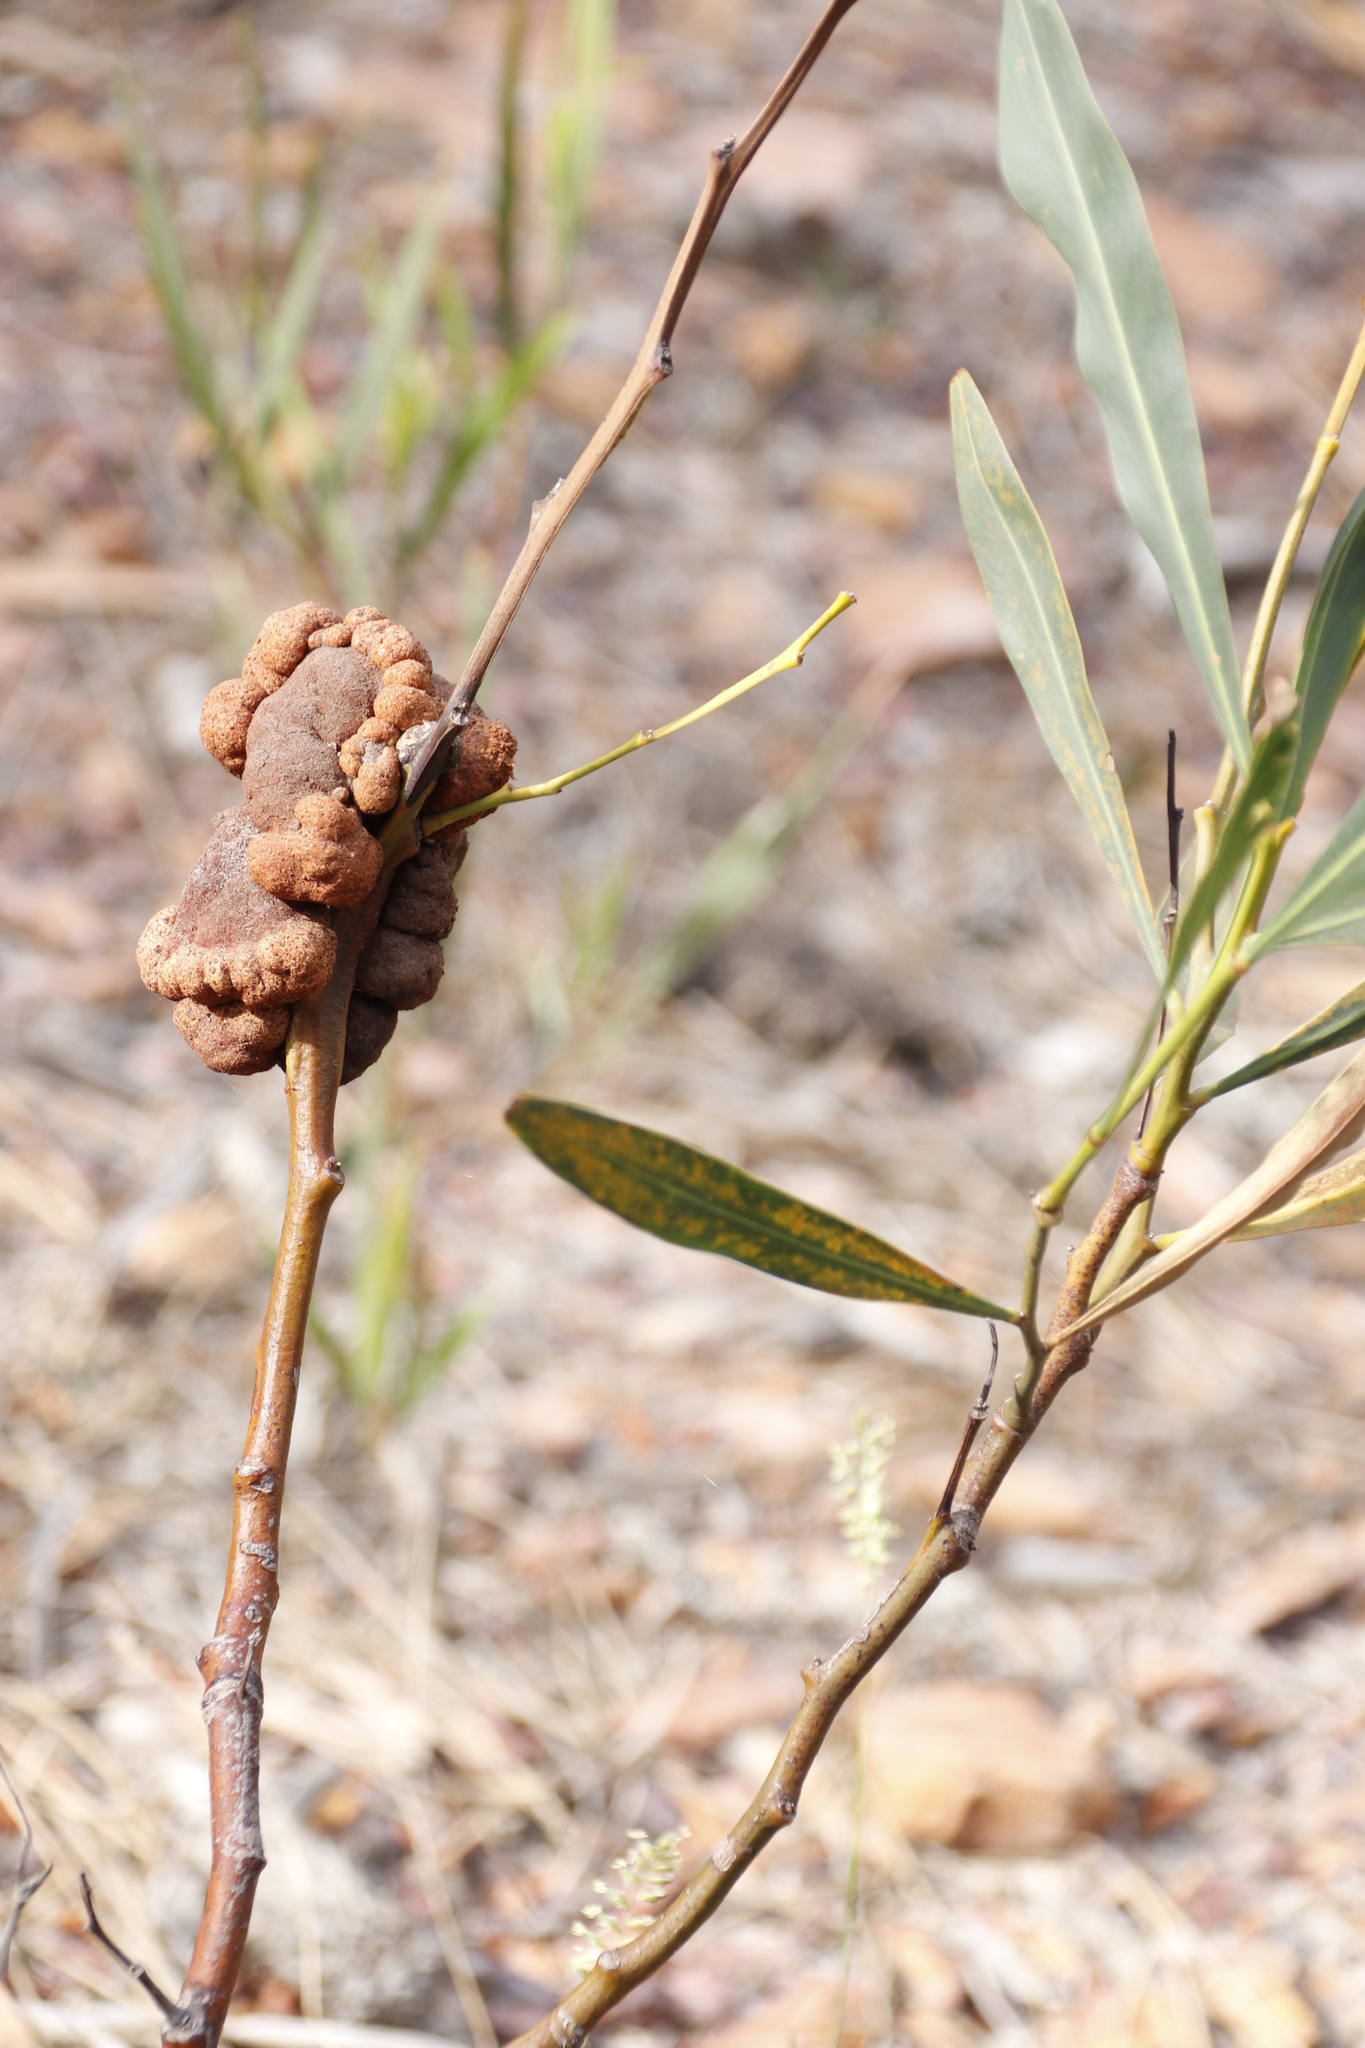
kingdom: Plantae
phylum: Tracheophyta
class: Magnoliopsida
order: Fabales
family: Fabaceae
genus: Acacia
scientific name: Acacia saligna
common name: Orange wattle
